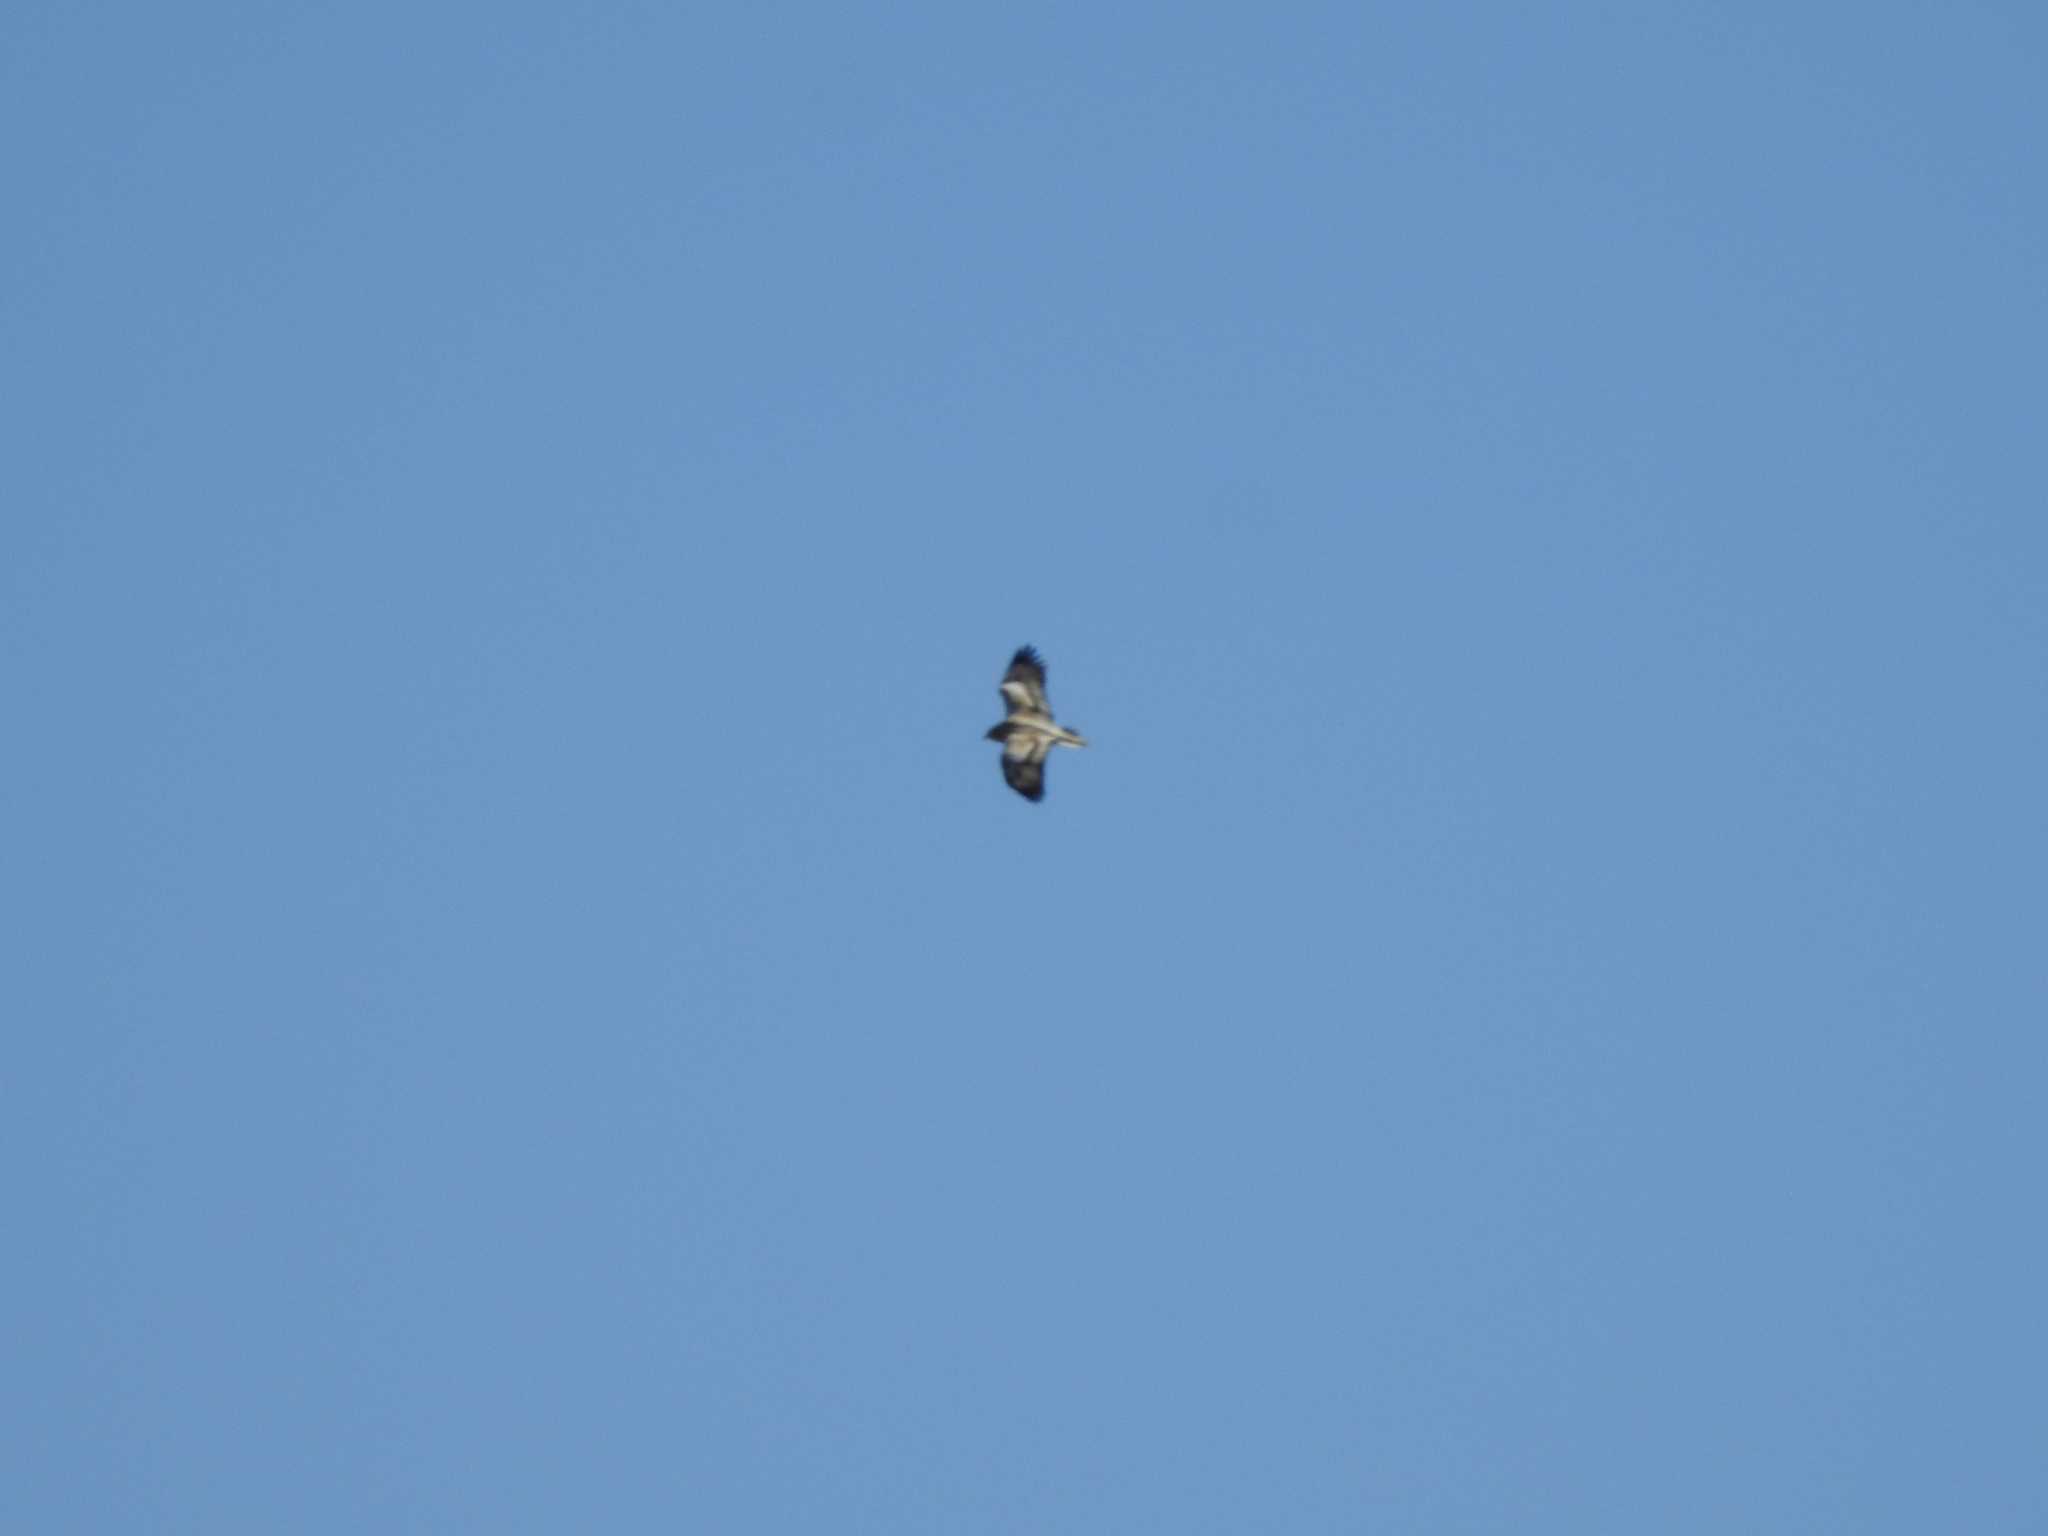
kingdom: Animalia
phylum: Chordata
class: Aves
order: Accipitriformes
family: Accipitridae
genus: Neophron
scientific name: Neophron percnopterus
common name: Egyptian vulture
